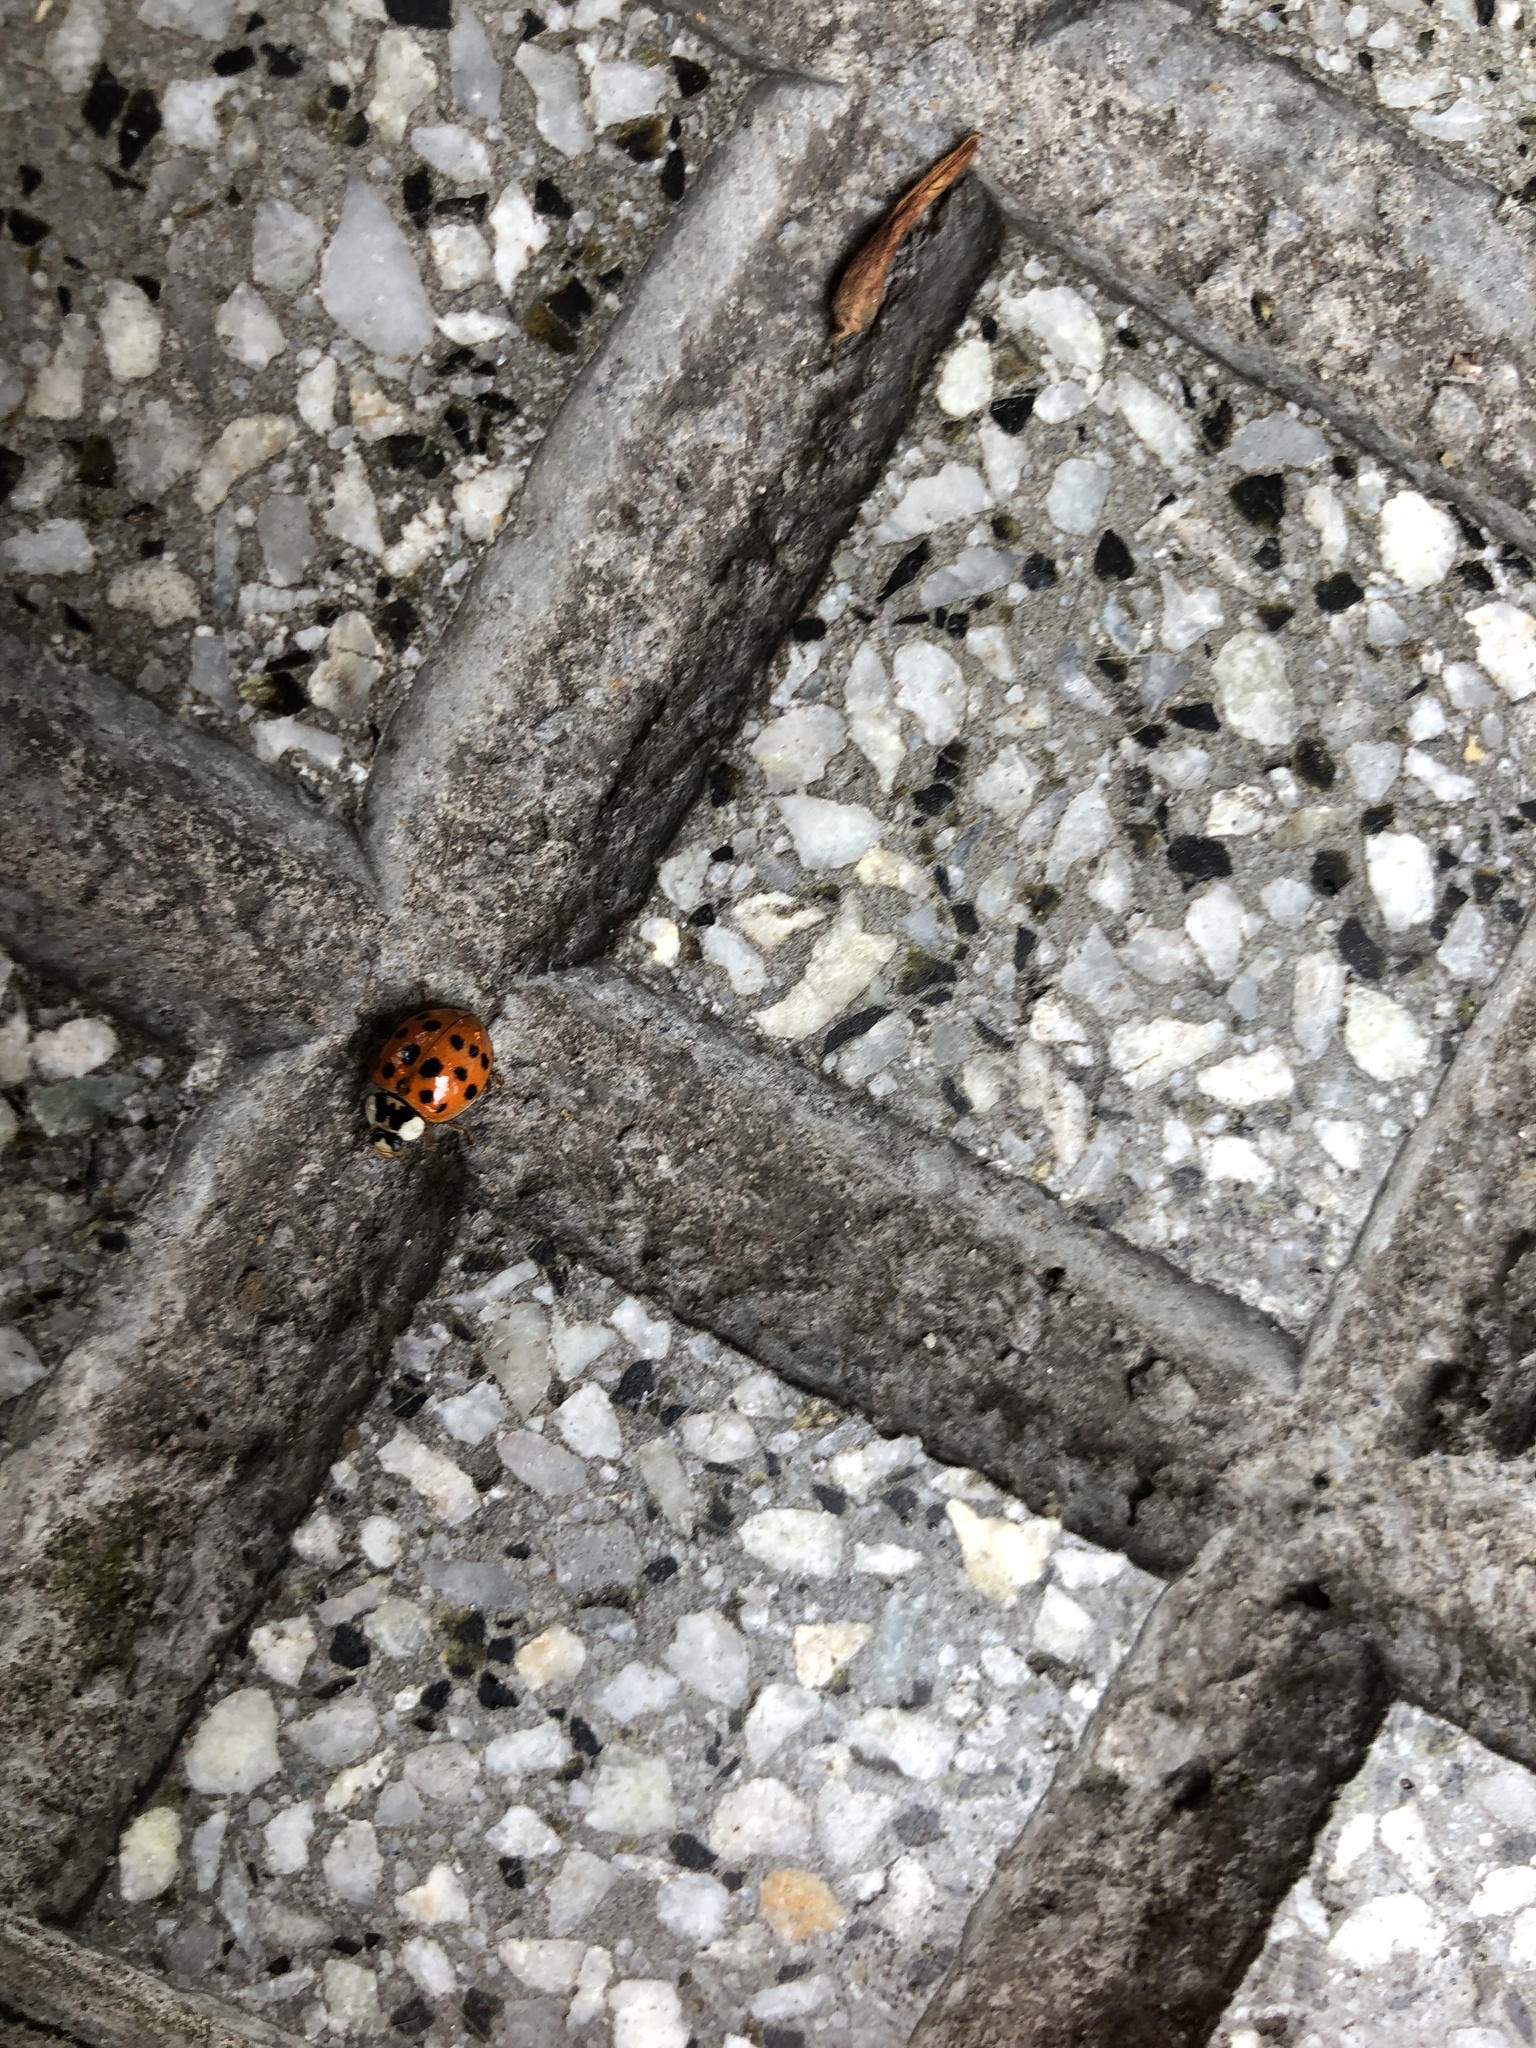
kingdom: Animalia
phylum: Arthropoda
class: Insecta
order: Coleoptera
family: Coccinellidae
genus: Harmonia
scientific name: Harmonia axyridis
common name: Harlequin ladybird
